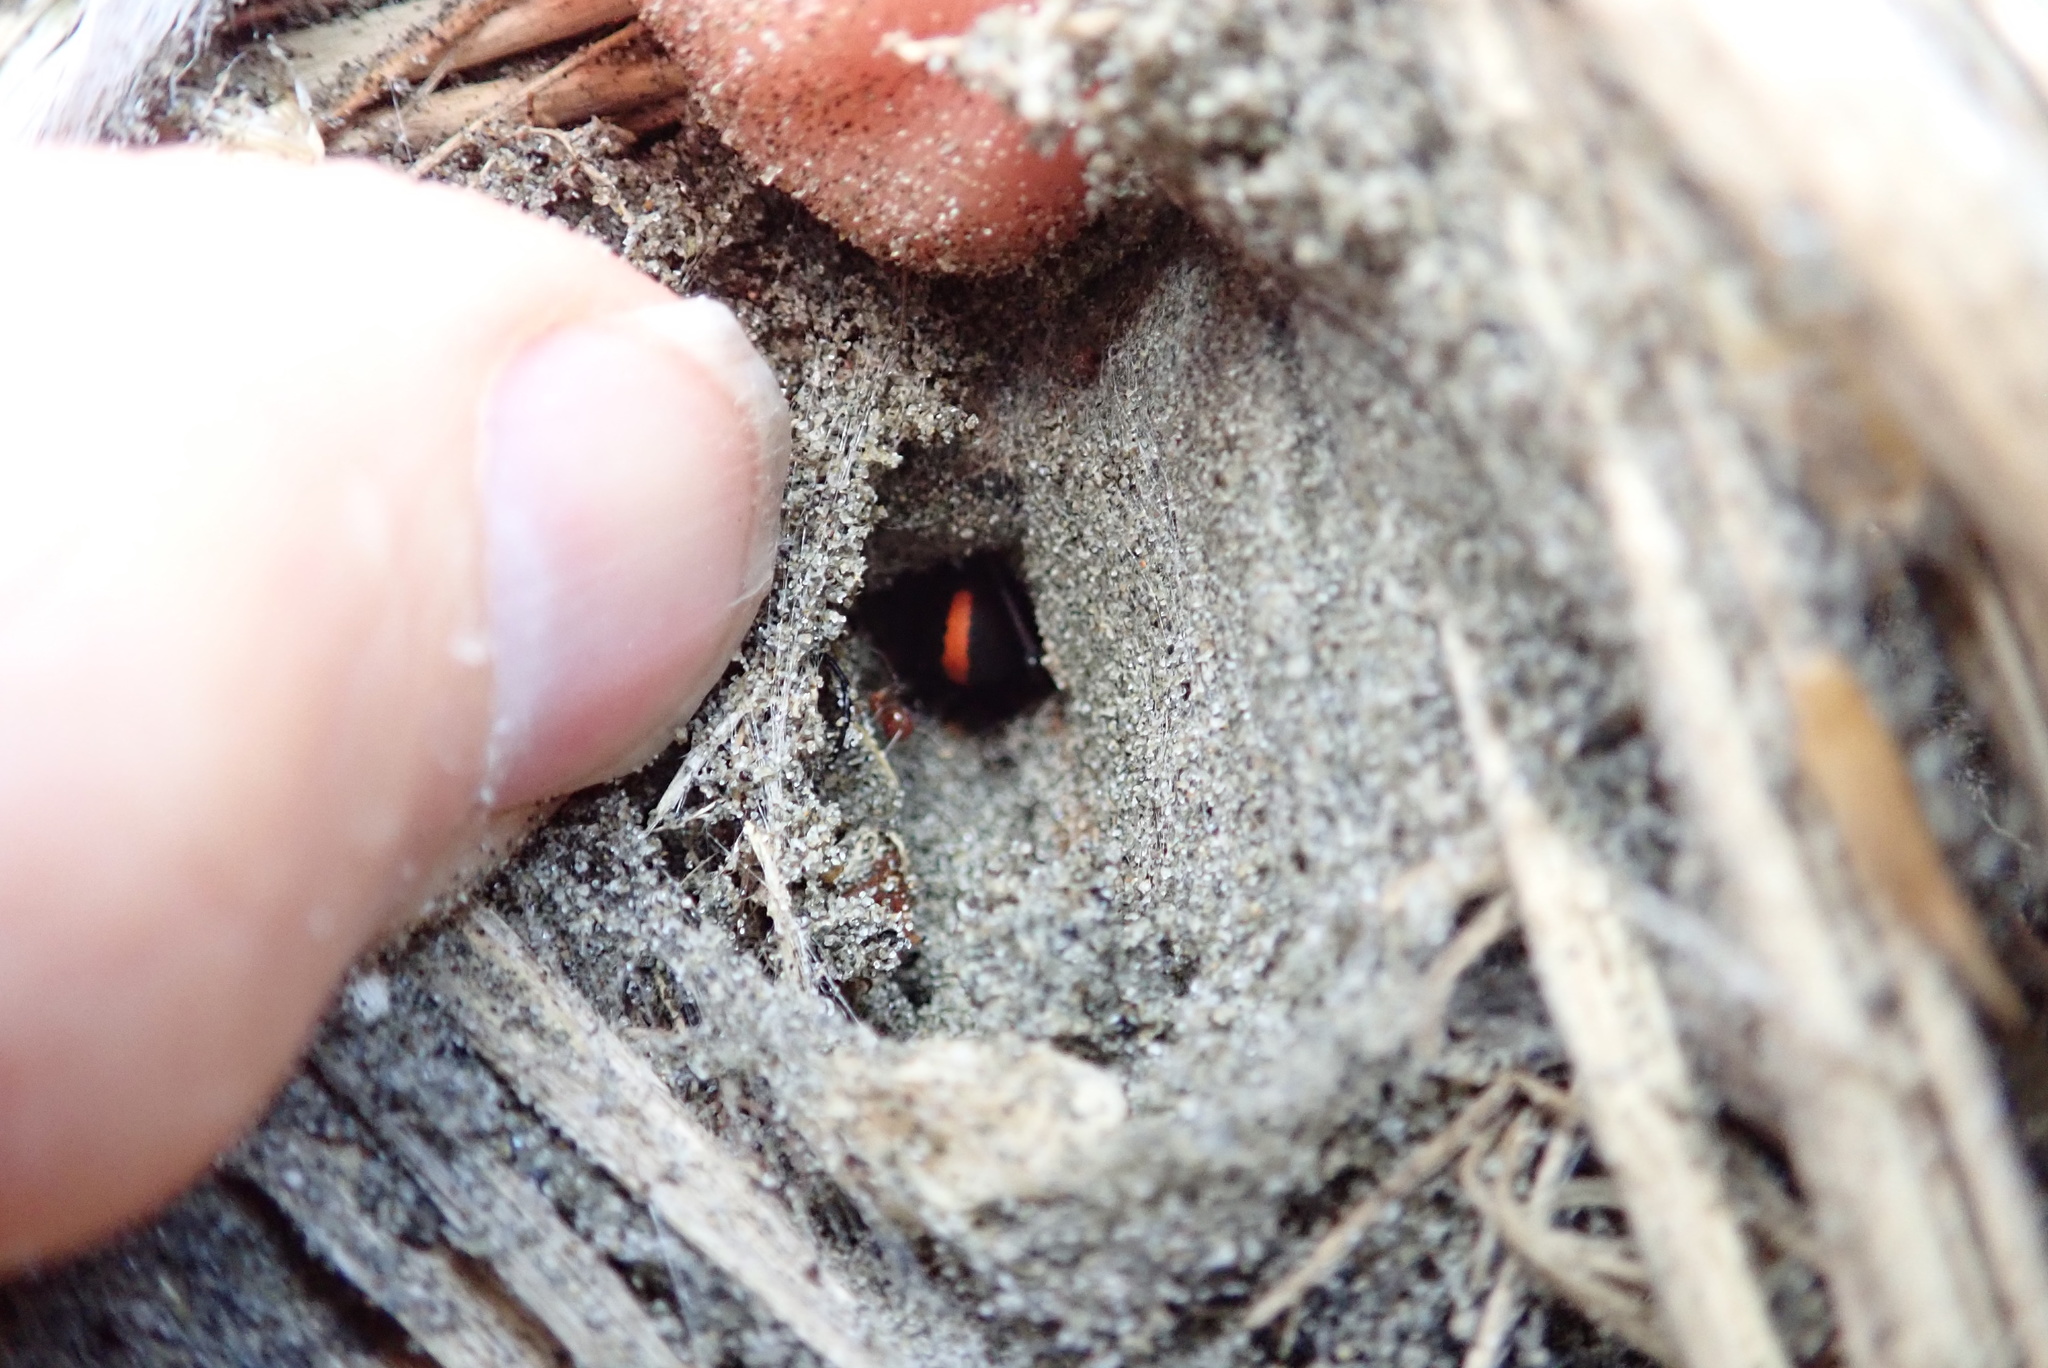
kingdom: Animalia
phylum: Arthropoda
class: Arachnida
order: Araneae
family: Theridiidae
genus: Latrodectus
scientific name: Latrodectus katipo
